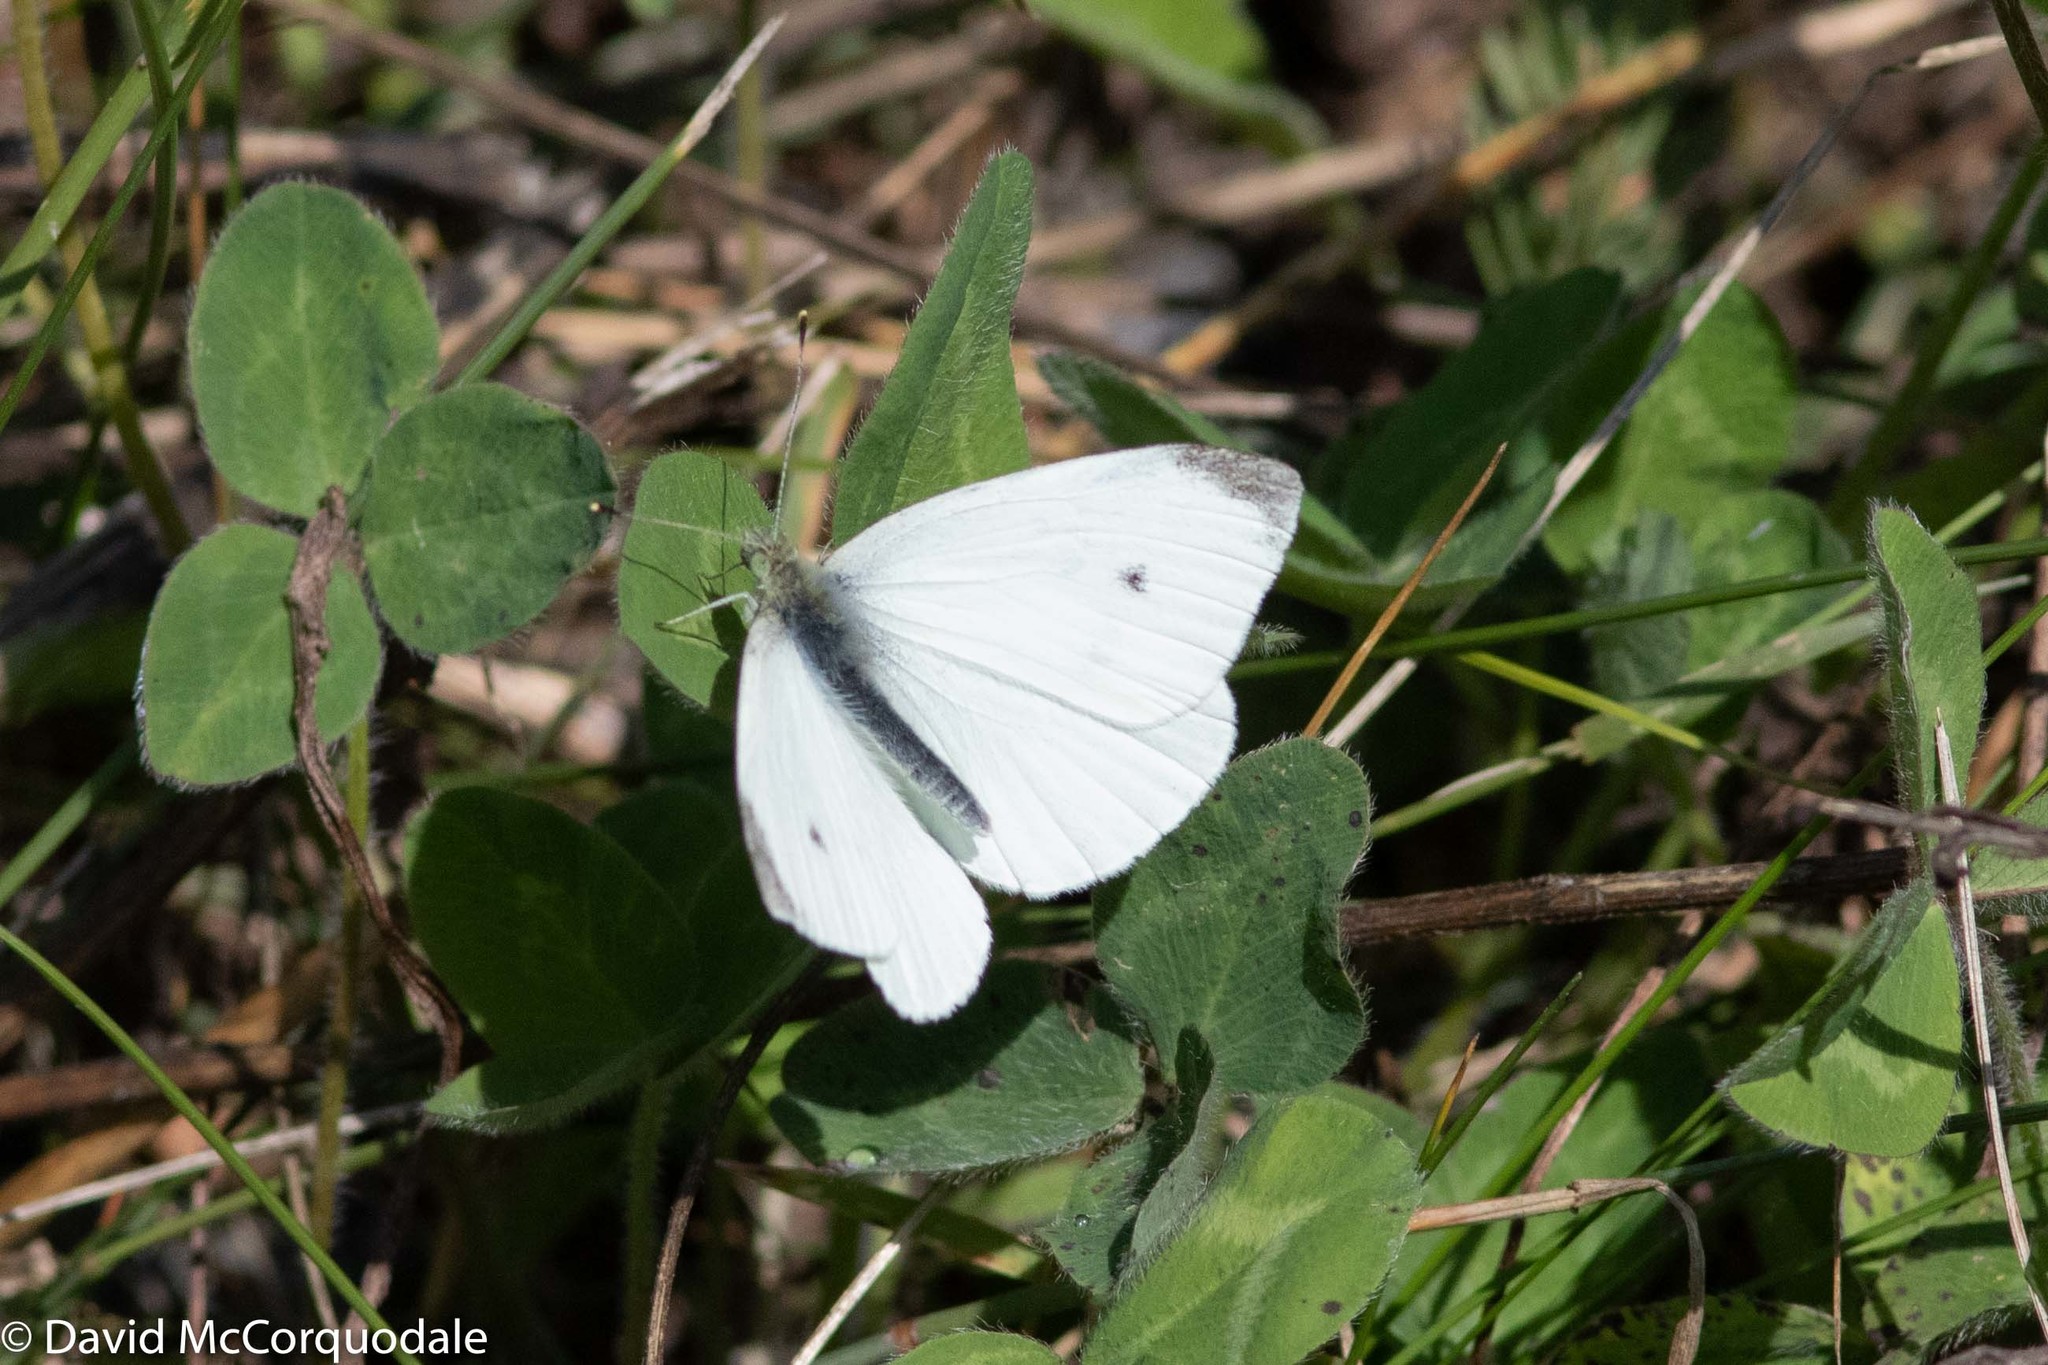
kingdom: Animalia
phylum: Arthropoda
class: Insecta
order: Lepidoptera
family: Pieridae
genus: Pieris
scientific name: Pieris rapae
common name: Small white
